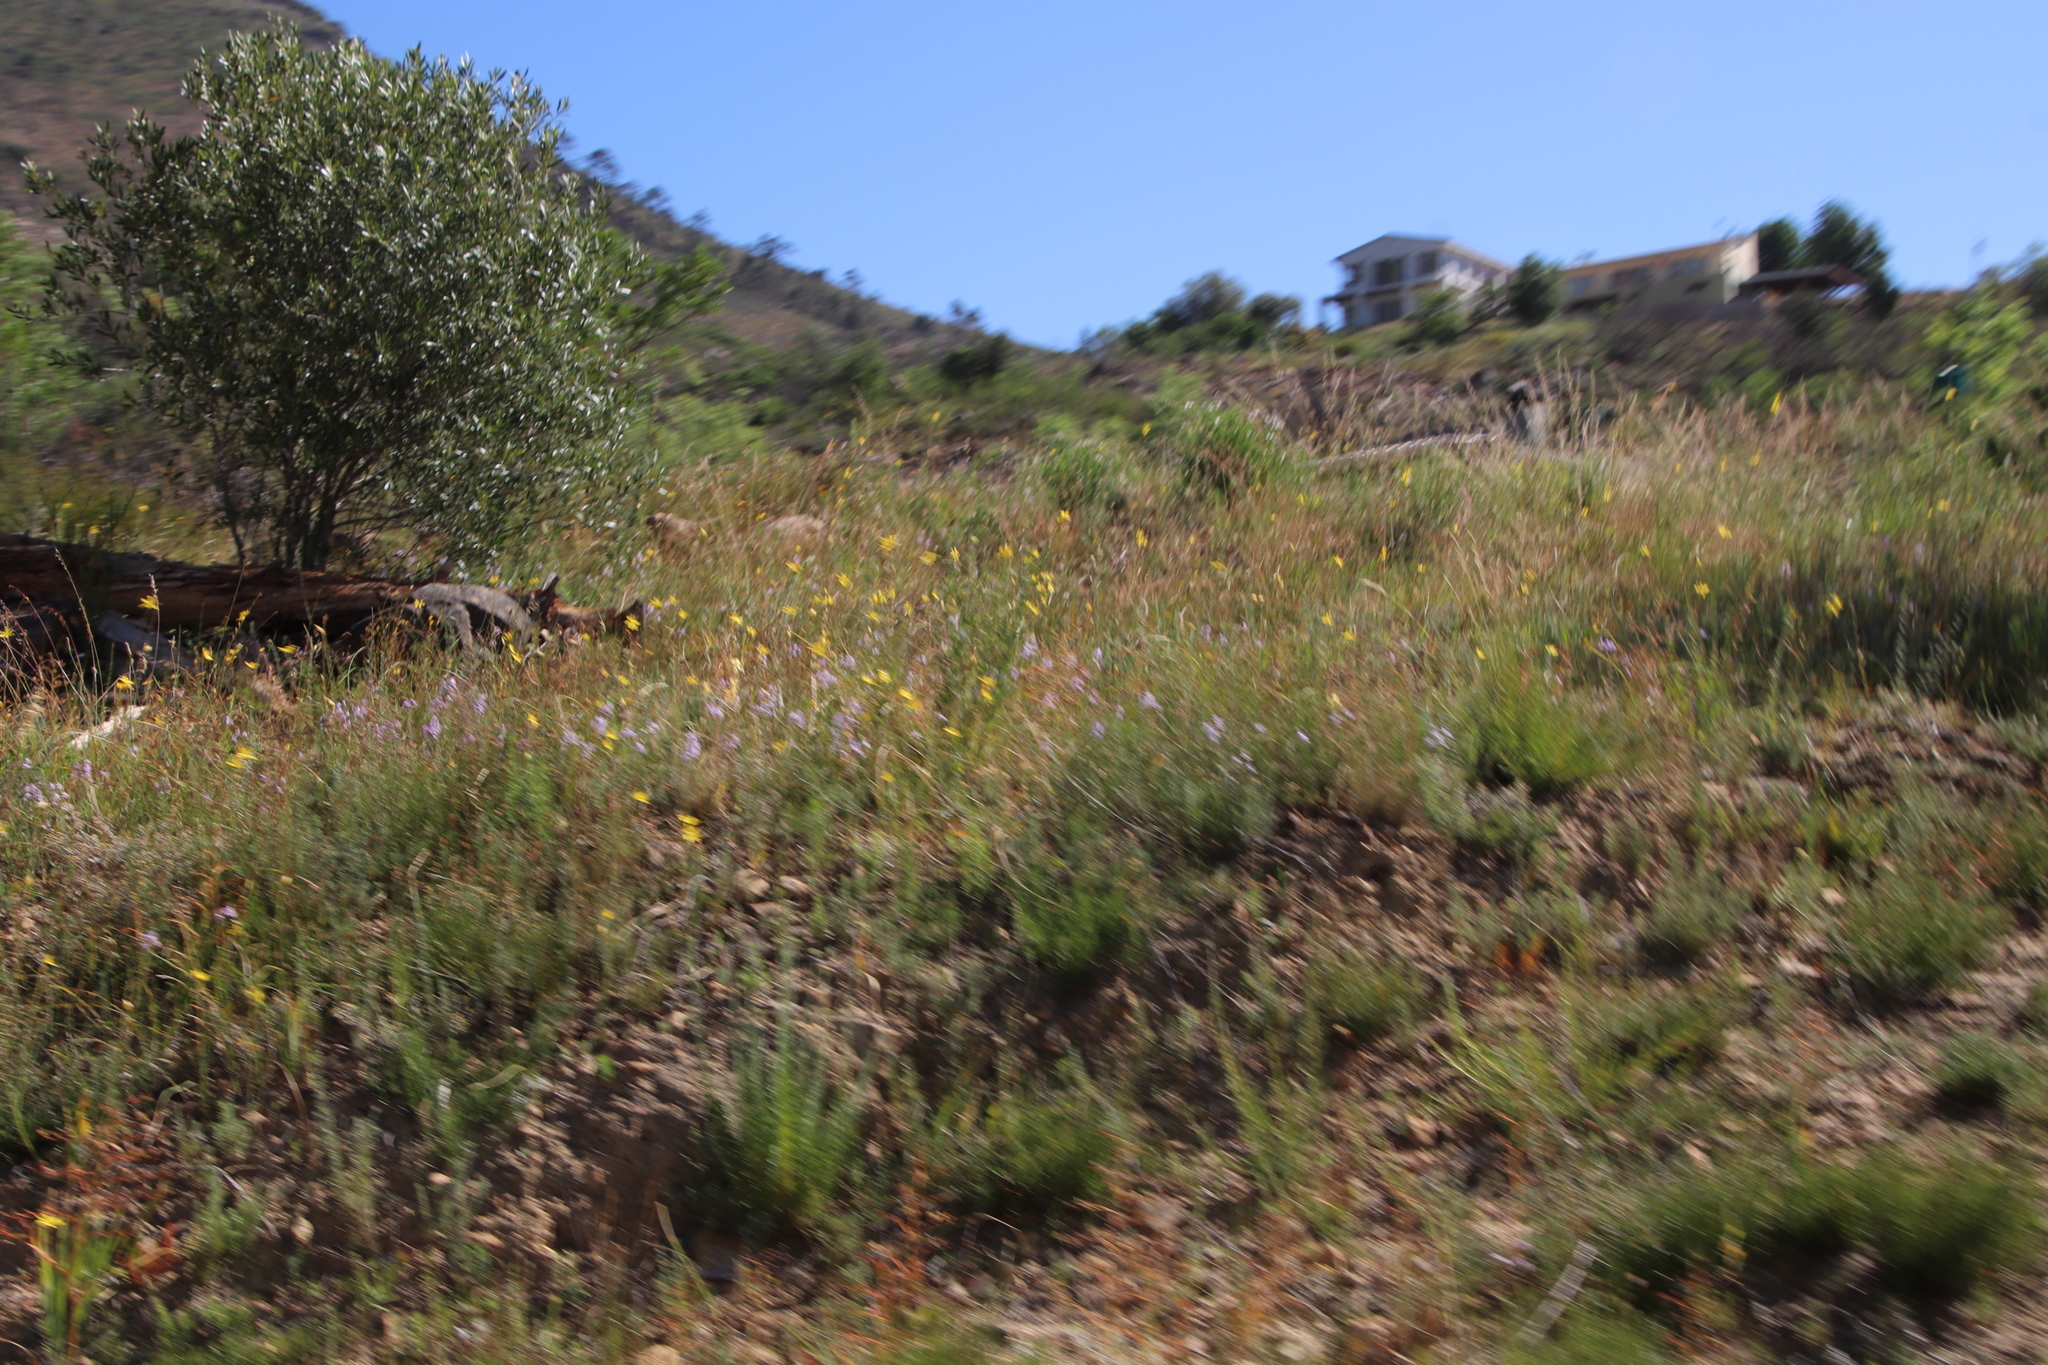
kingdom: Plantae
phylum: Tracheophyta
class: Liliopsida
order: Asparagales
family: Iridaceae
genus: Micranthus
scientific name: Micranthus alopecuroides
